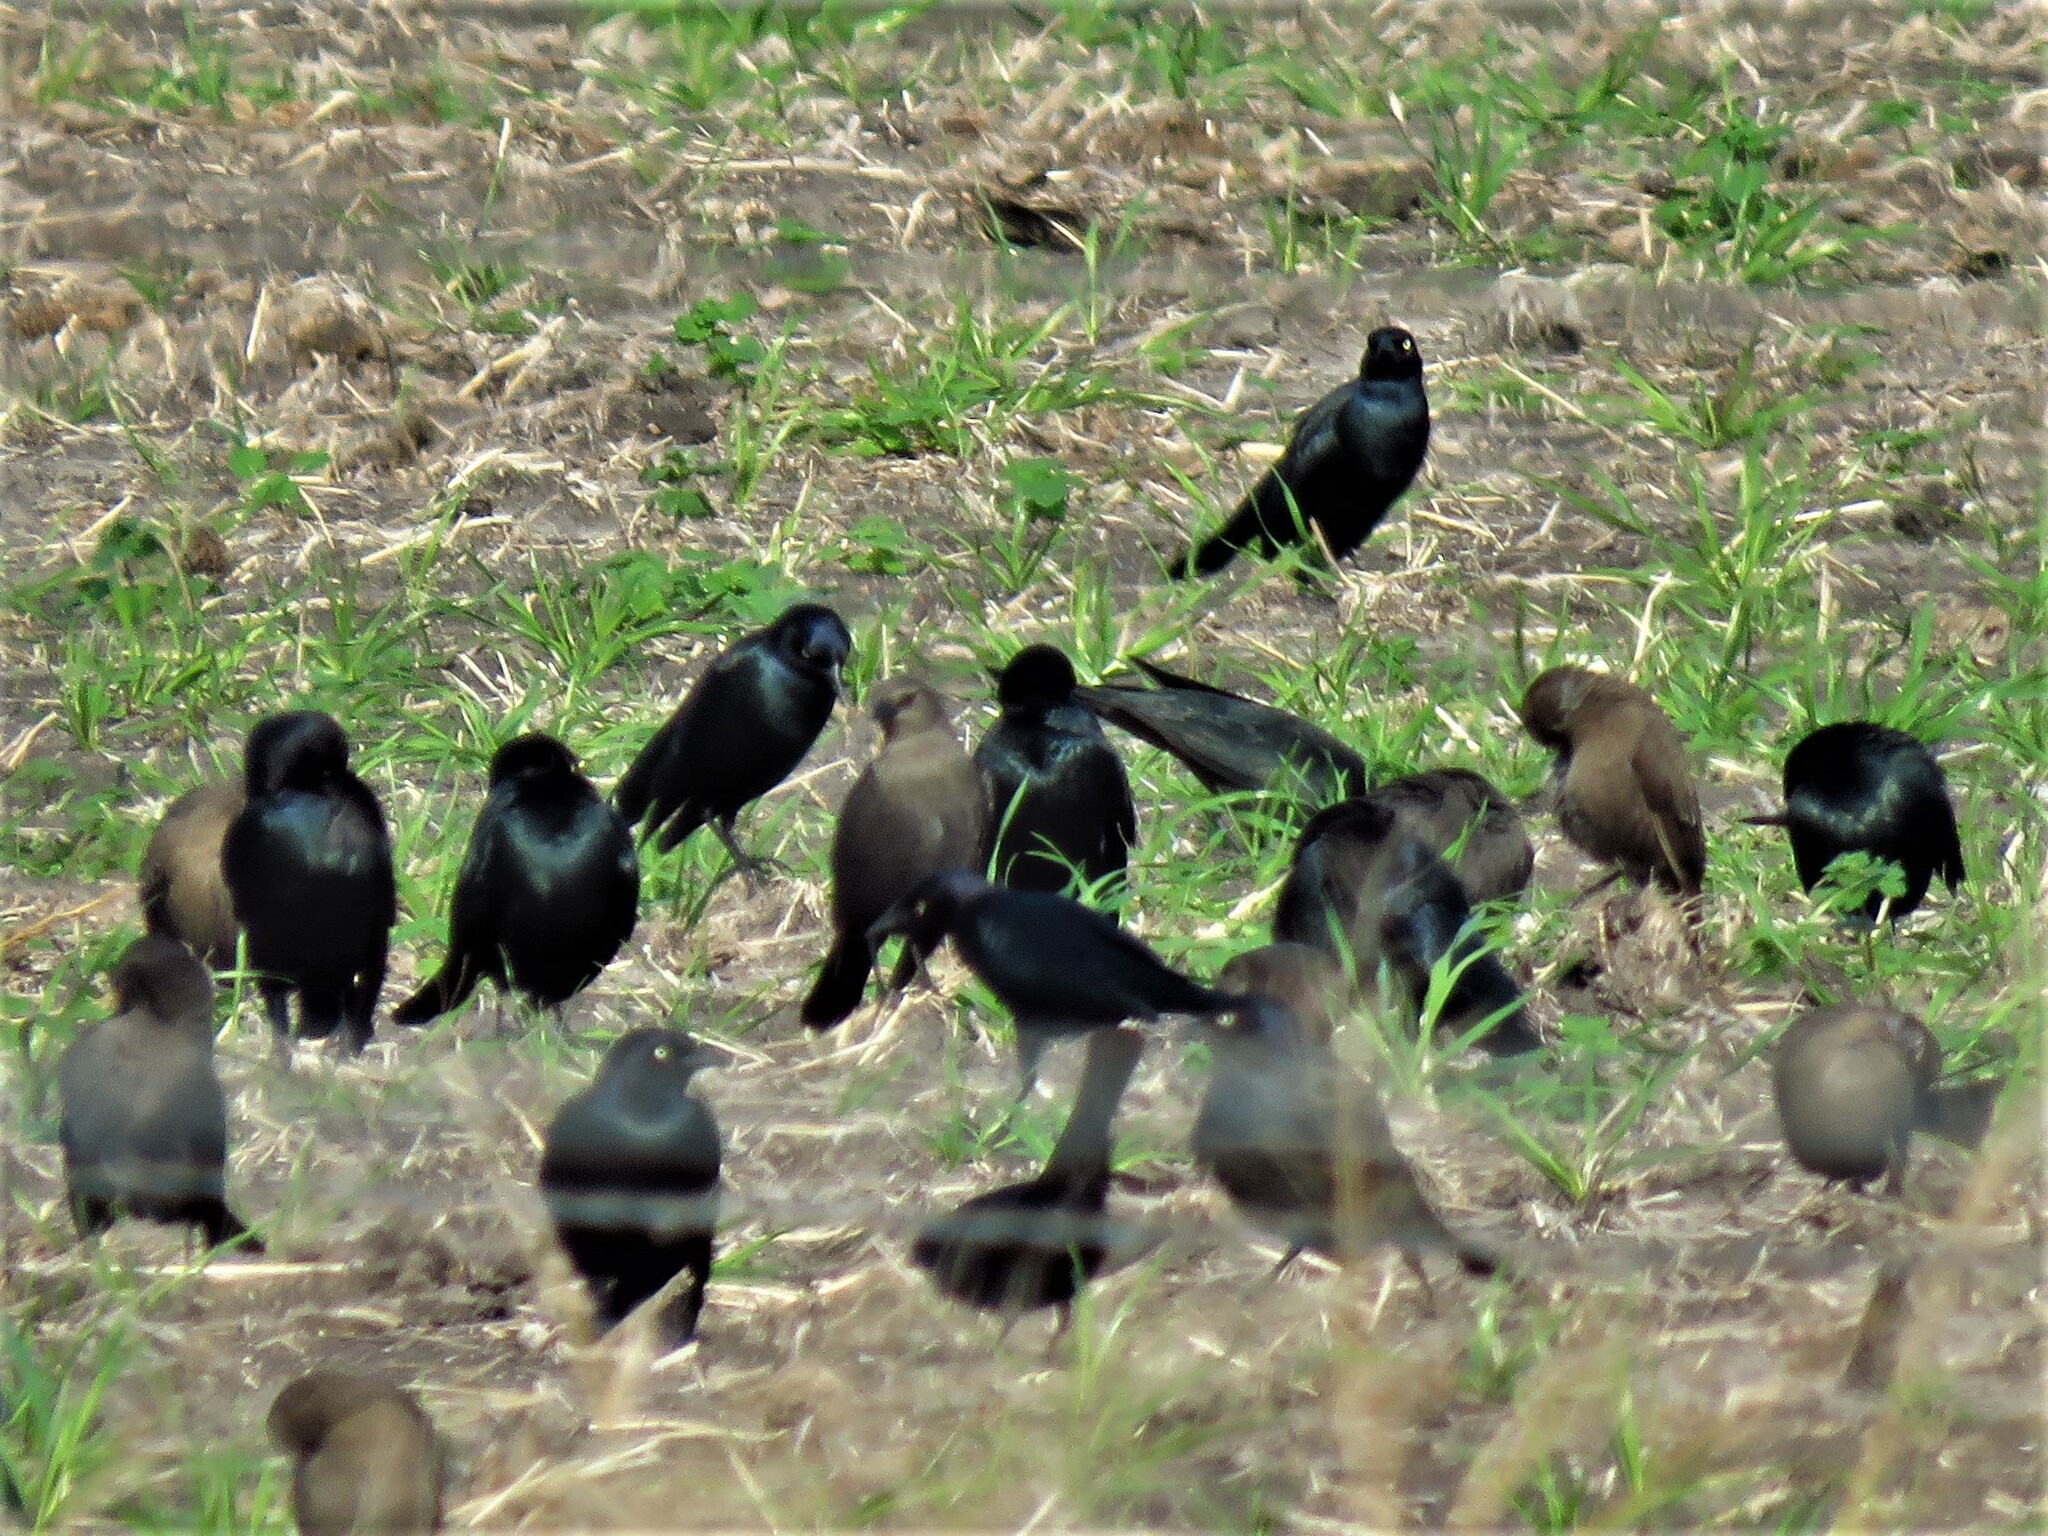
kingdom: Animalia
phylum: Chordata
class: Aves
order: Passeriformes
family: Icteridae
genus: Euphagus
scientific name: Euphagus cyanocephalus
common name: Brewer's blackbird
